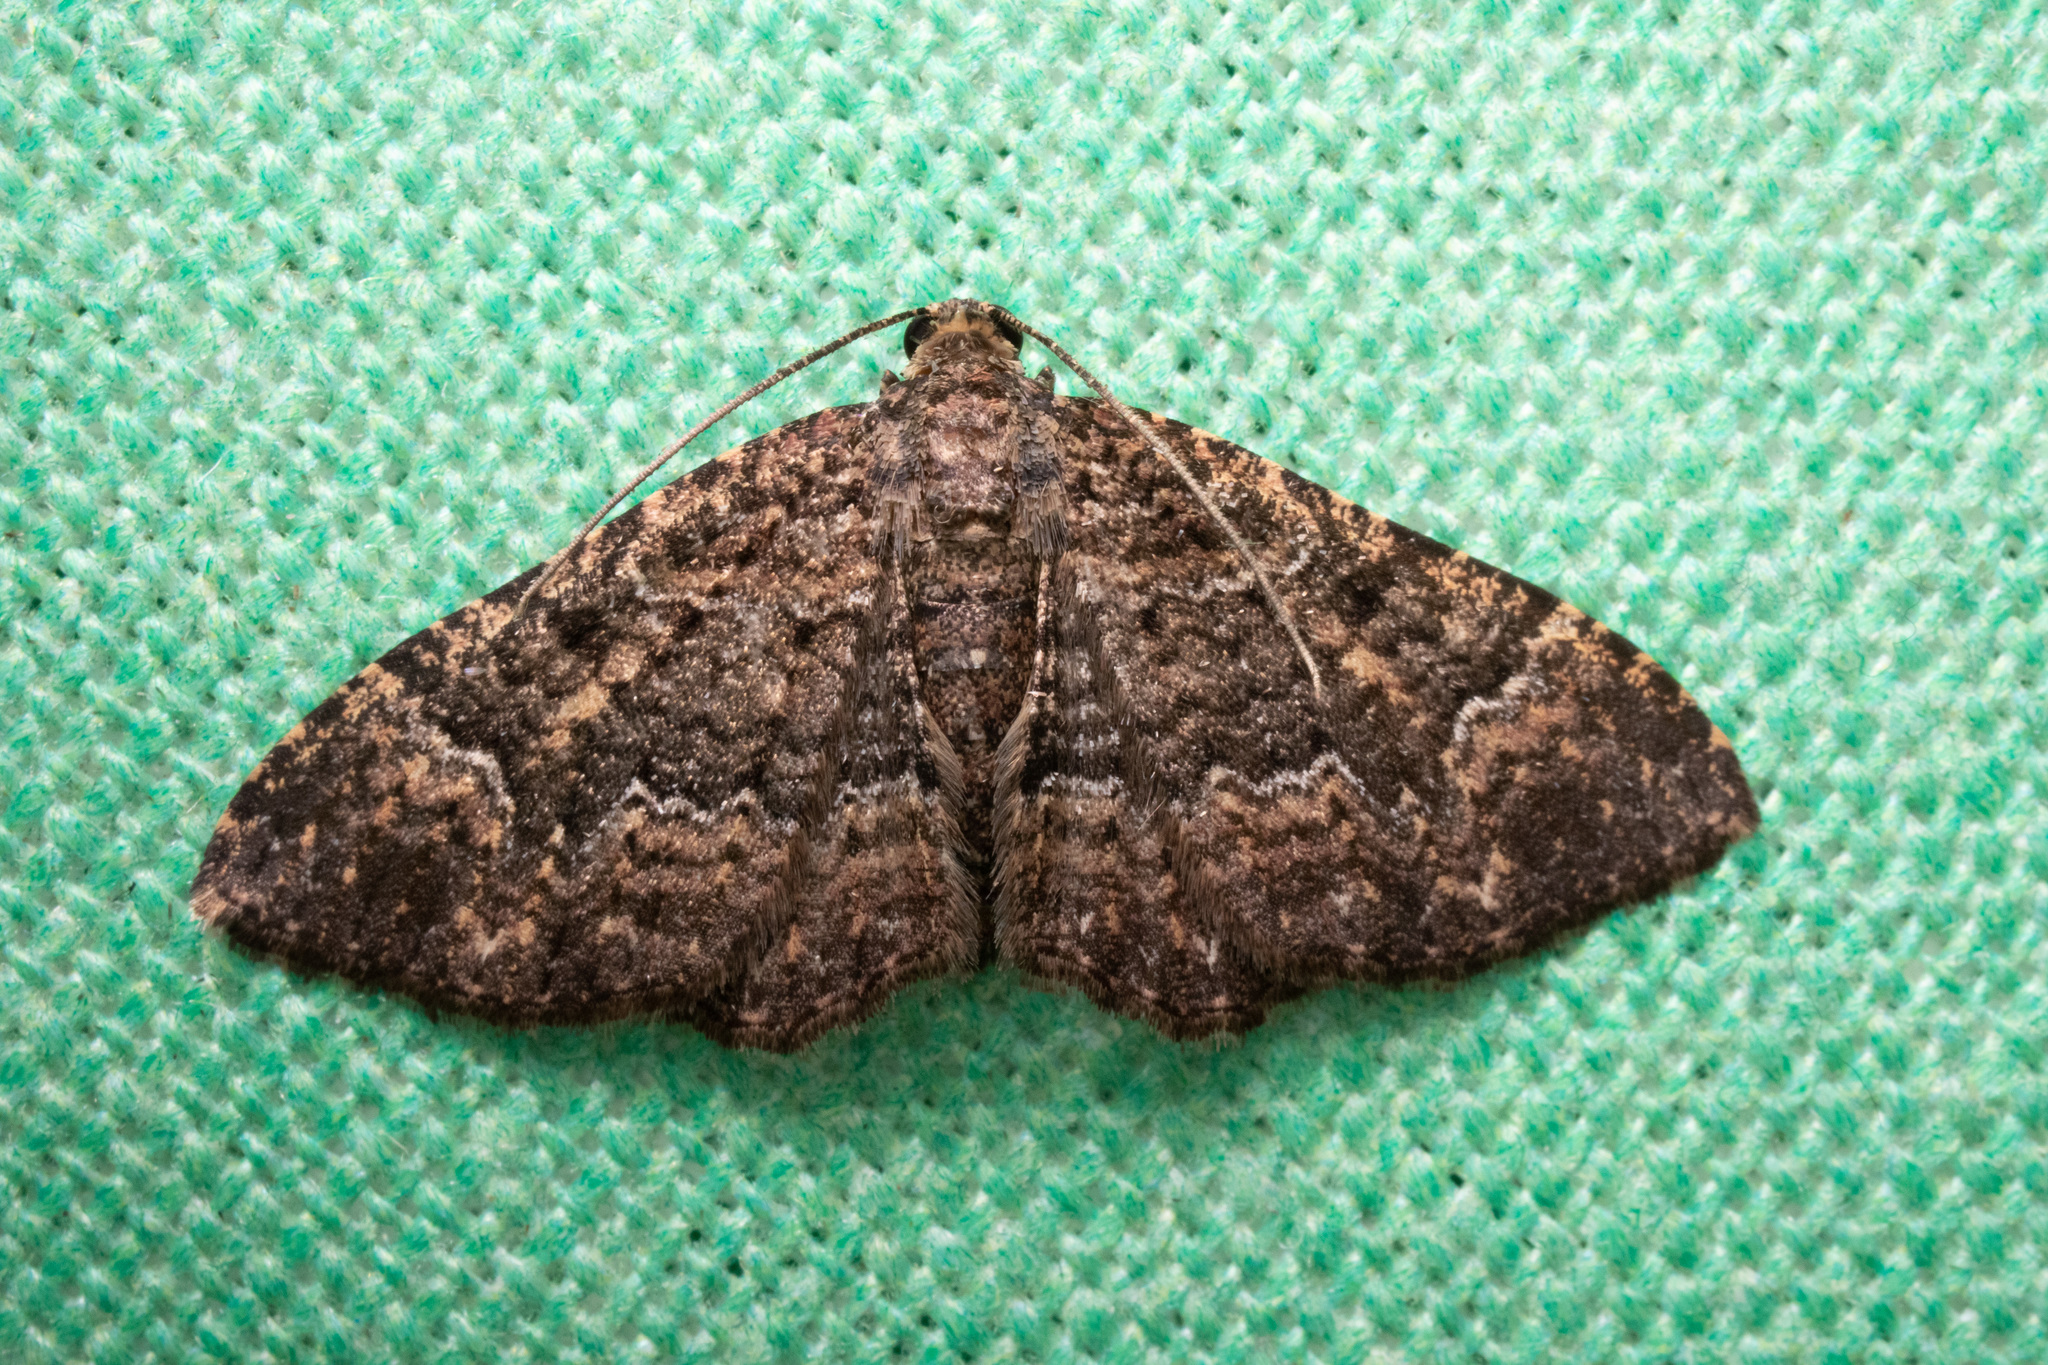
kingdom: Animalia
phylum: Arthropoda
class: Insecta
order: Lepidoptera
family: Geometridae
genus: Disclisioprocta
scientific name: Disclisioprocta stellata
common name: Somber carpet
